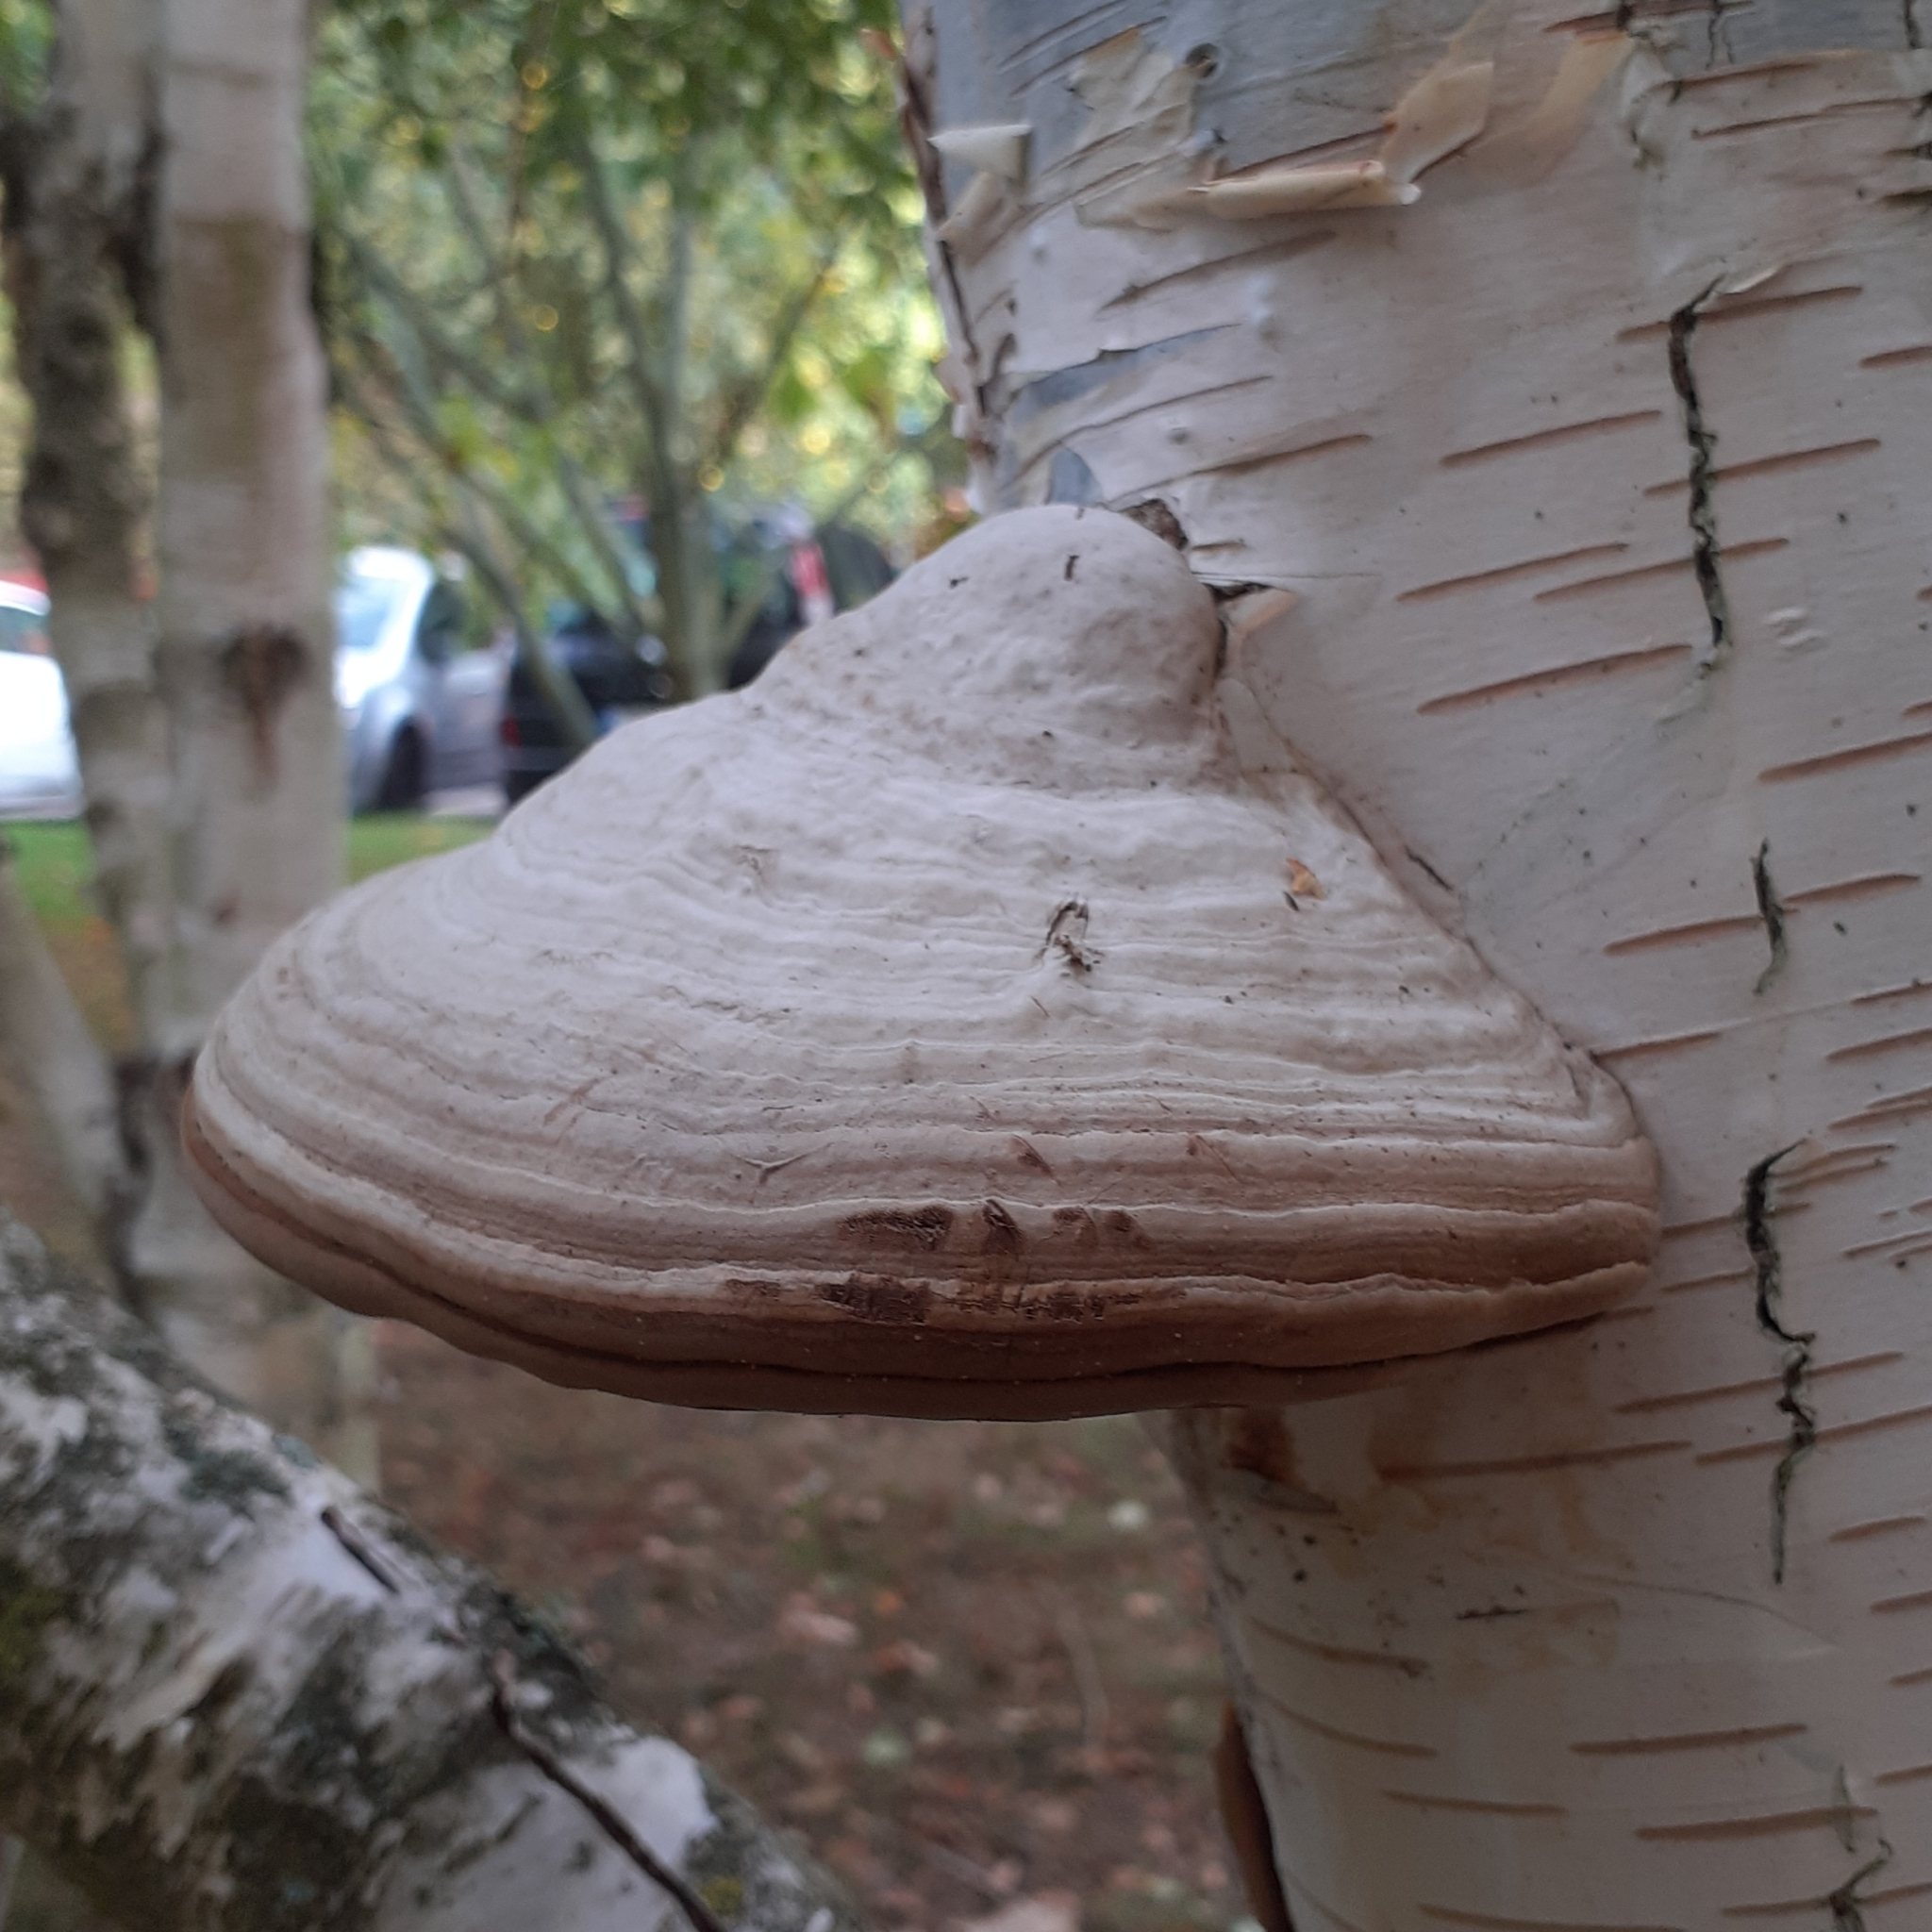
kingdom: Fungi
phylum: Basidiomycota
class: Agaricomycetes
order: Polyporales
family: Polyporaceae
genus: Fomes
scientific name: Fomes fomentarius
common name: Hoof fungus
